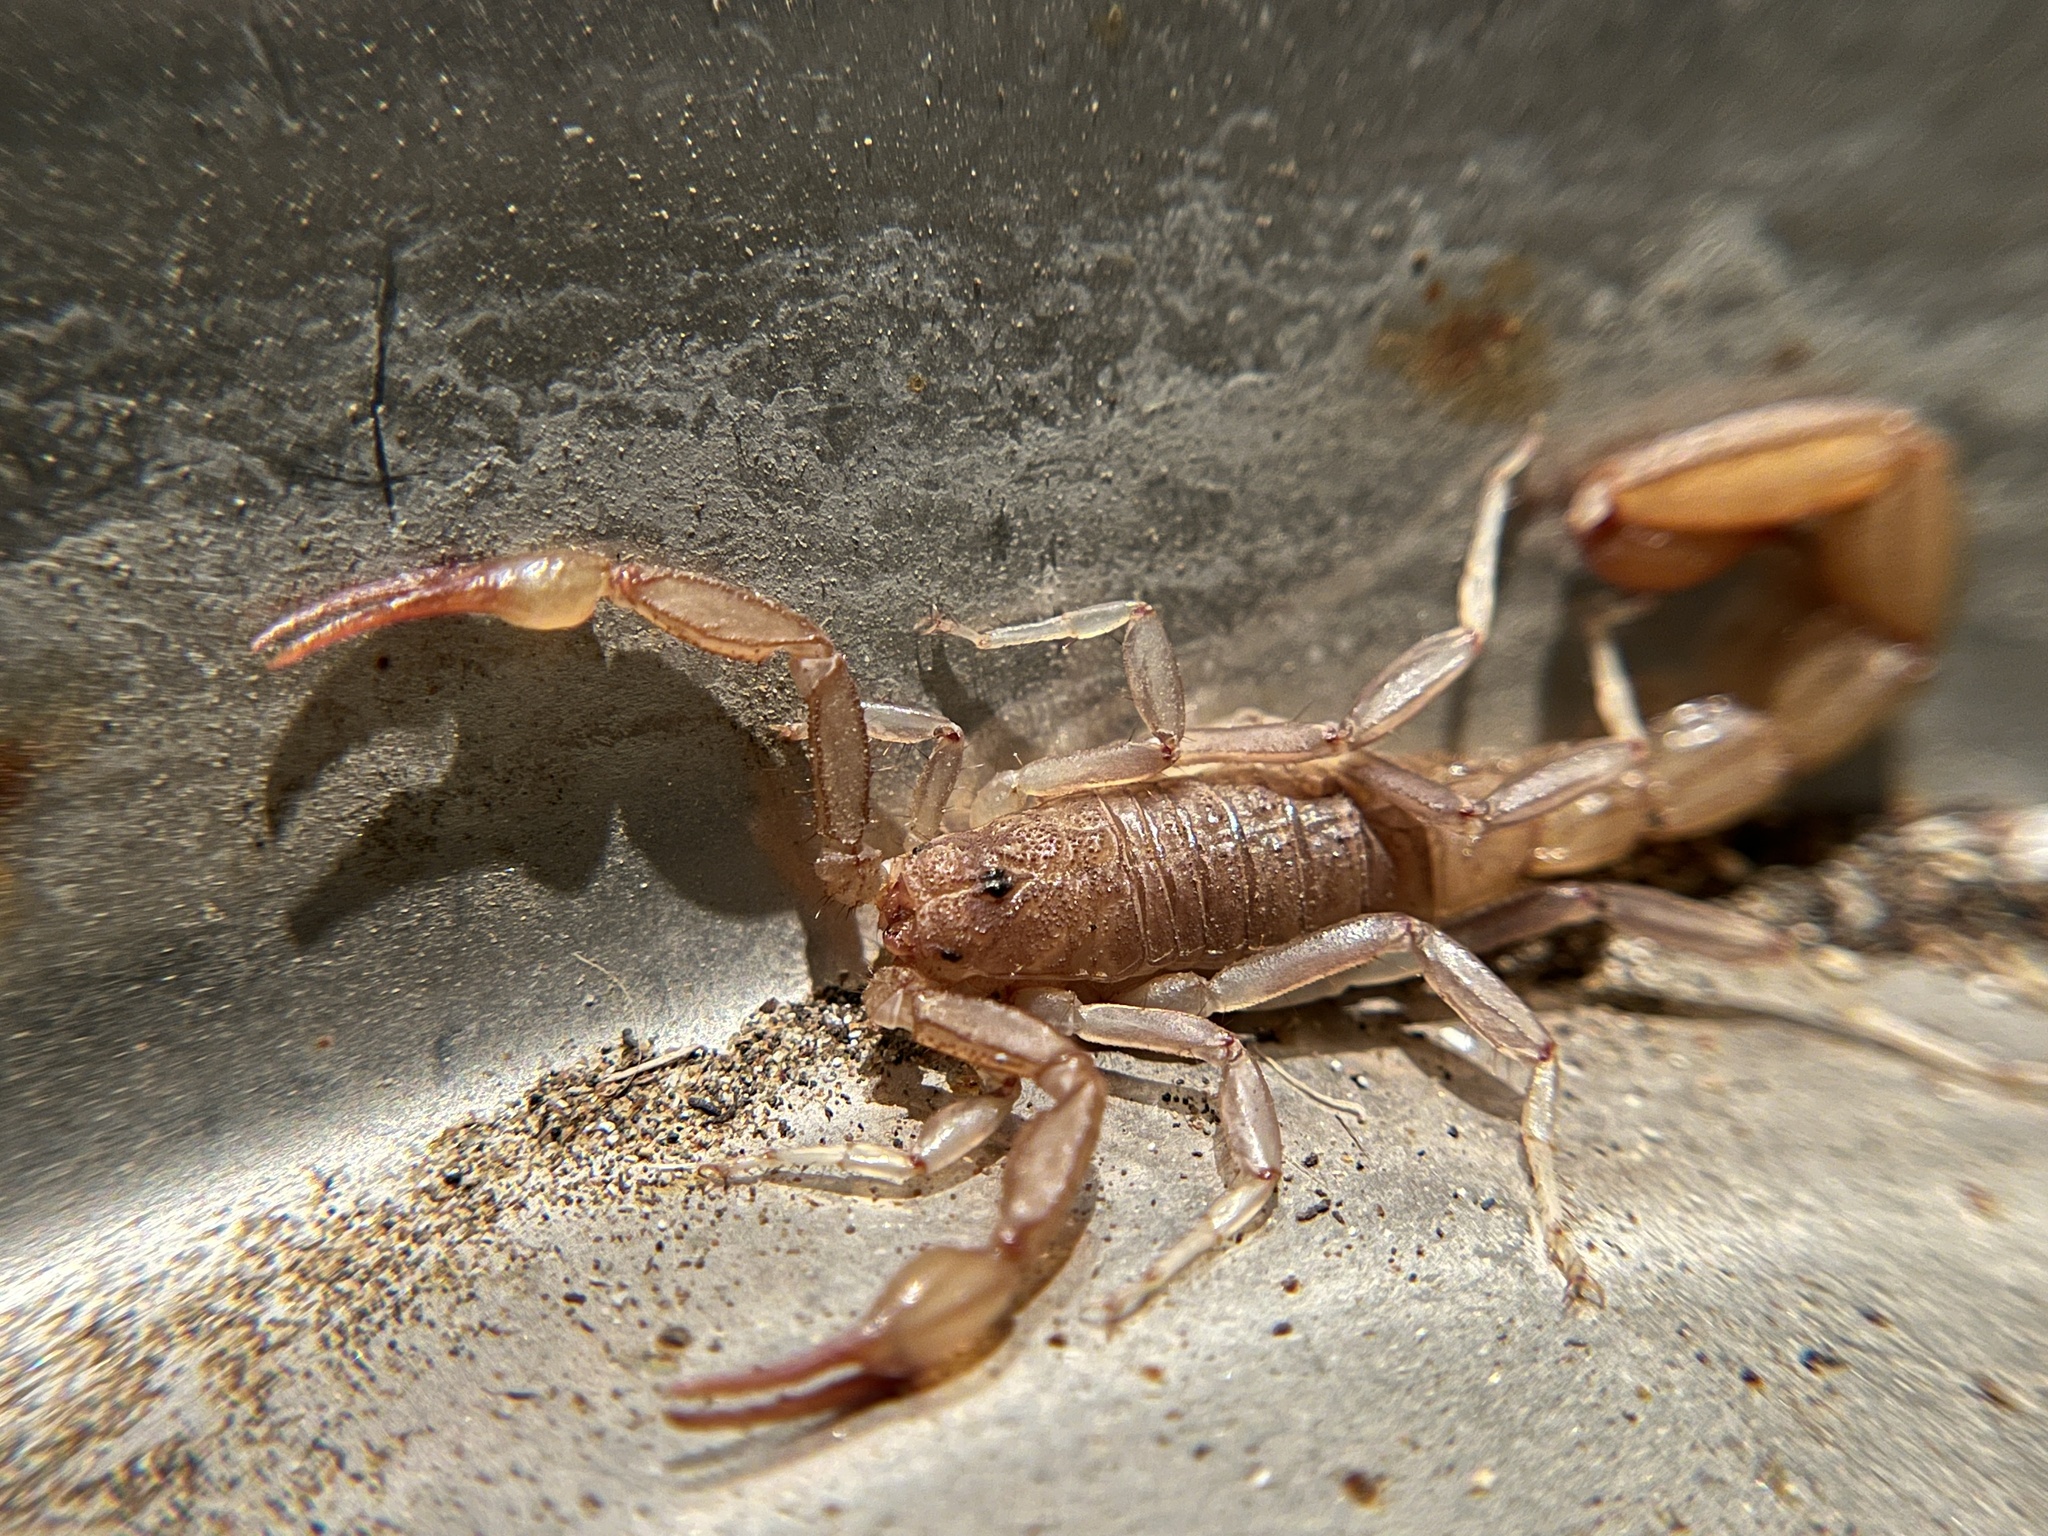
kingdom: Animalia
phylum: Arthropoda
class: Arachnida
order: Scorpiones
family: Vaejovidae
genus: Paravaejovis
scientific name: Paravaejovis puritanus
